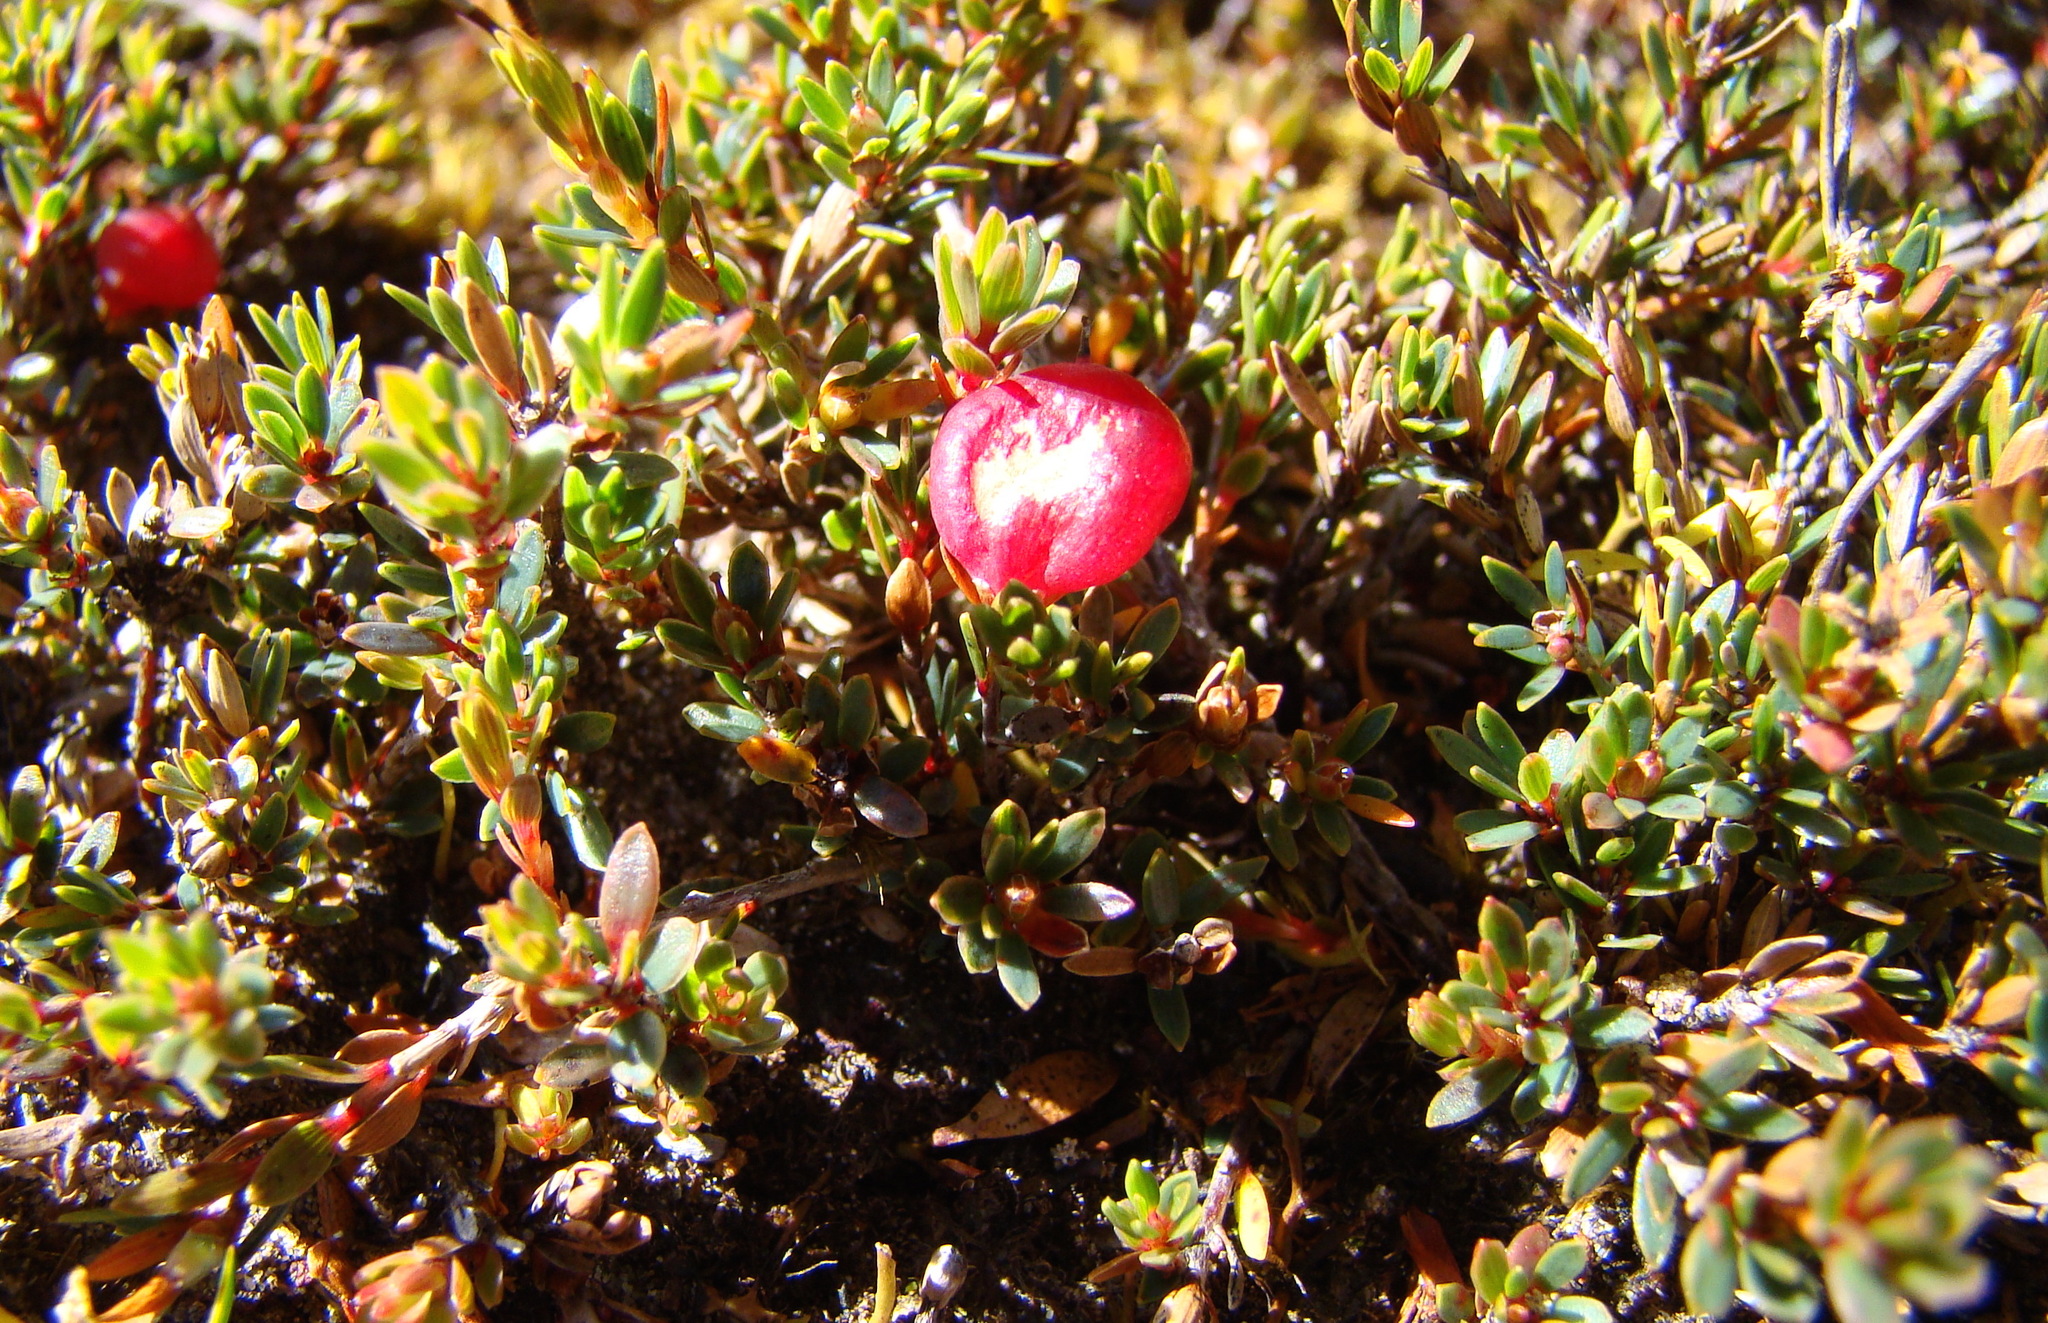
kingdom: Plantae
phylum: Tracheophyta
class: Magnoliopsida
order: Ericales
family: Ericaceae
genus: Pentachondra
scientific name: Pentachondra pumila
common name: Carpet-heath
